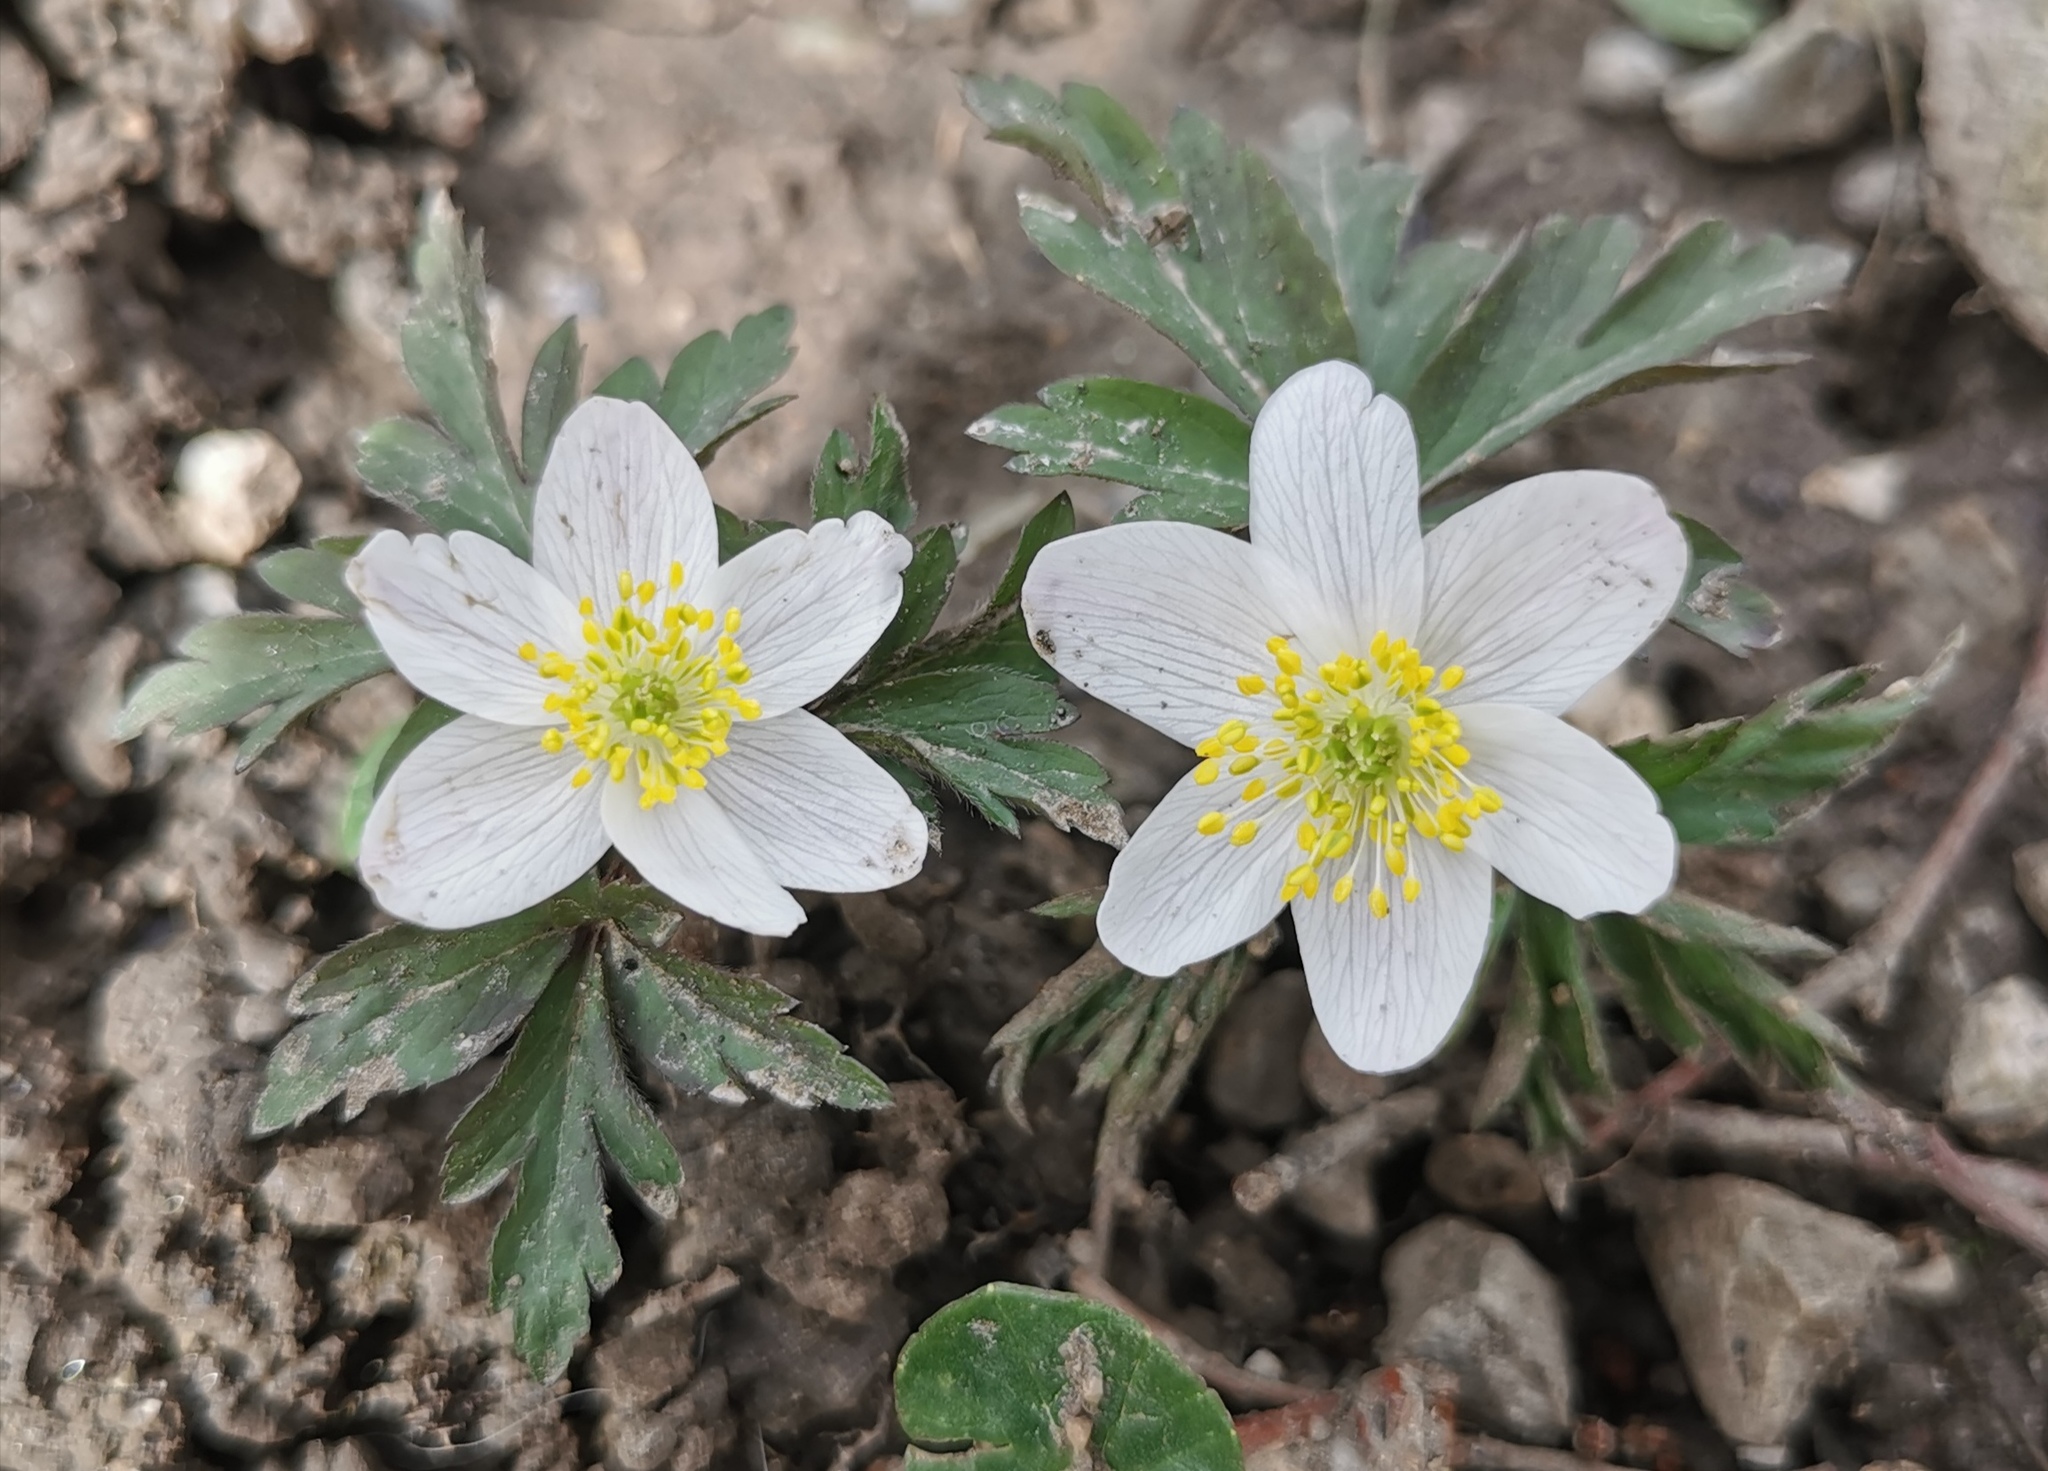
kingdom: Plantae
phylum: Tracheophyta
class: Magnoliopsida
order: Ranunculales
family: Ranunculaceae
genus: Anemone
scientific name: Anemone nemorosa
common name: Wood anemone
